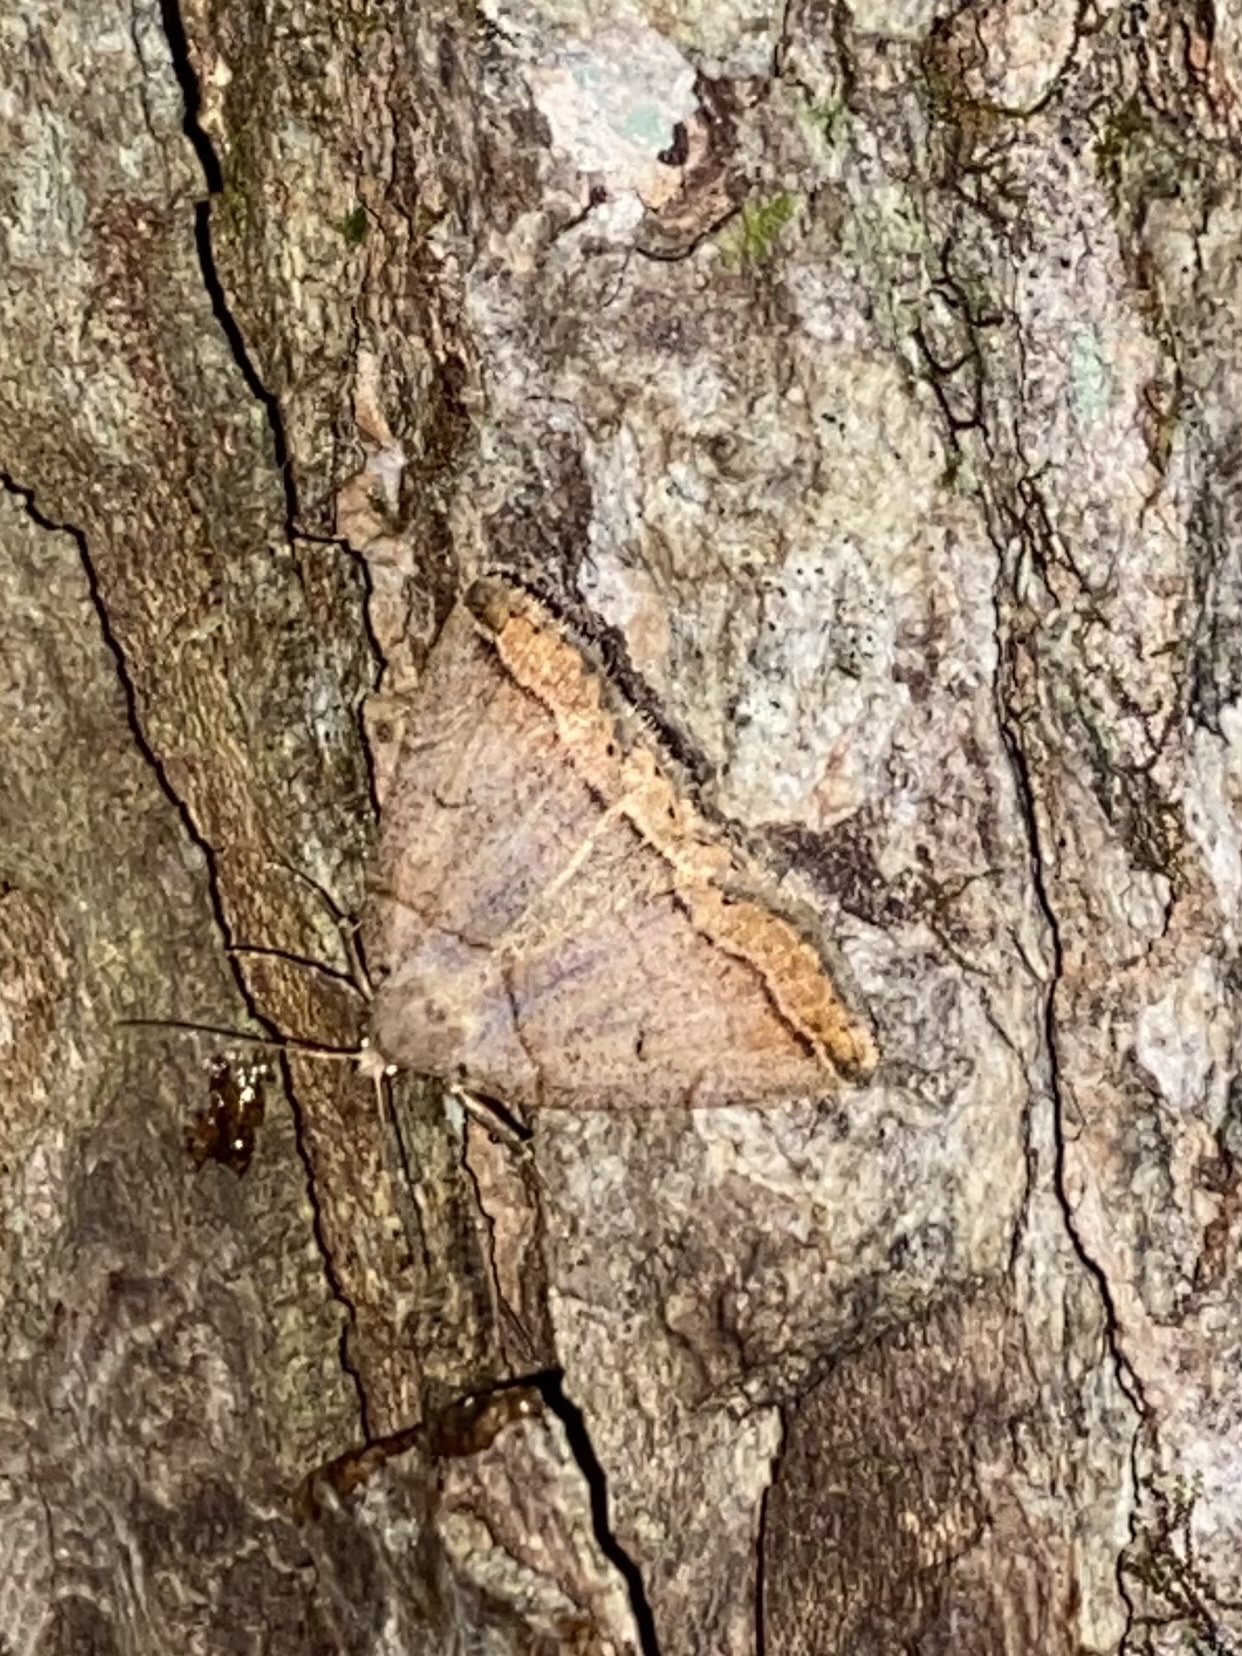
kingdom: Animalia
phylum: Arthropoda
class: Insecta
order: Lepidoptera
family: Erebidae
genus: Zanclognatha
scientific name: Zanclognatha laevigata
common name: Variable fan-foot
